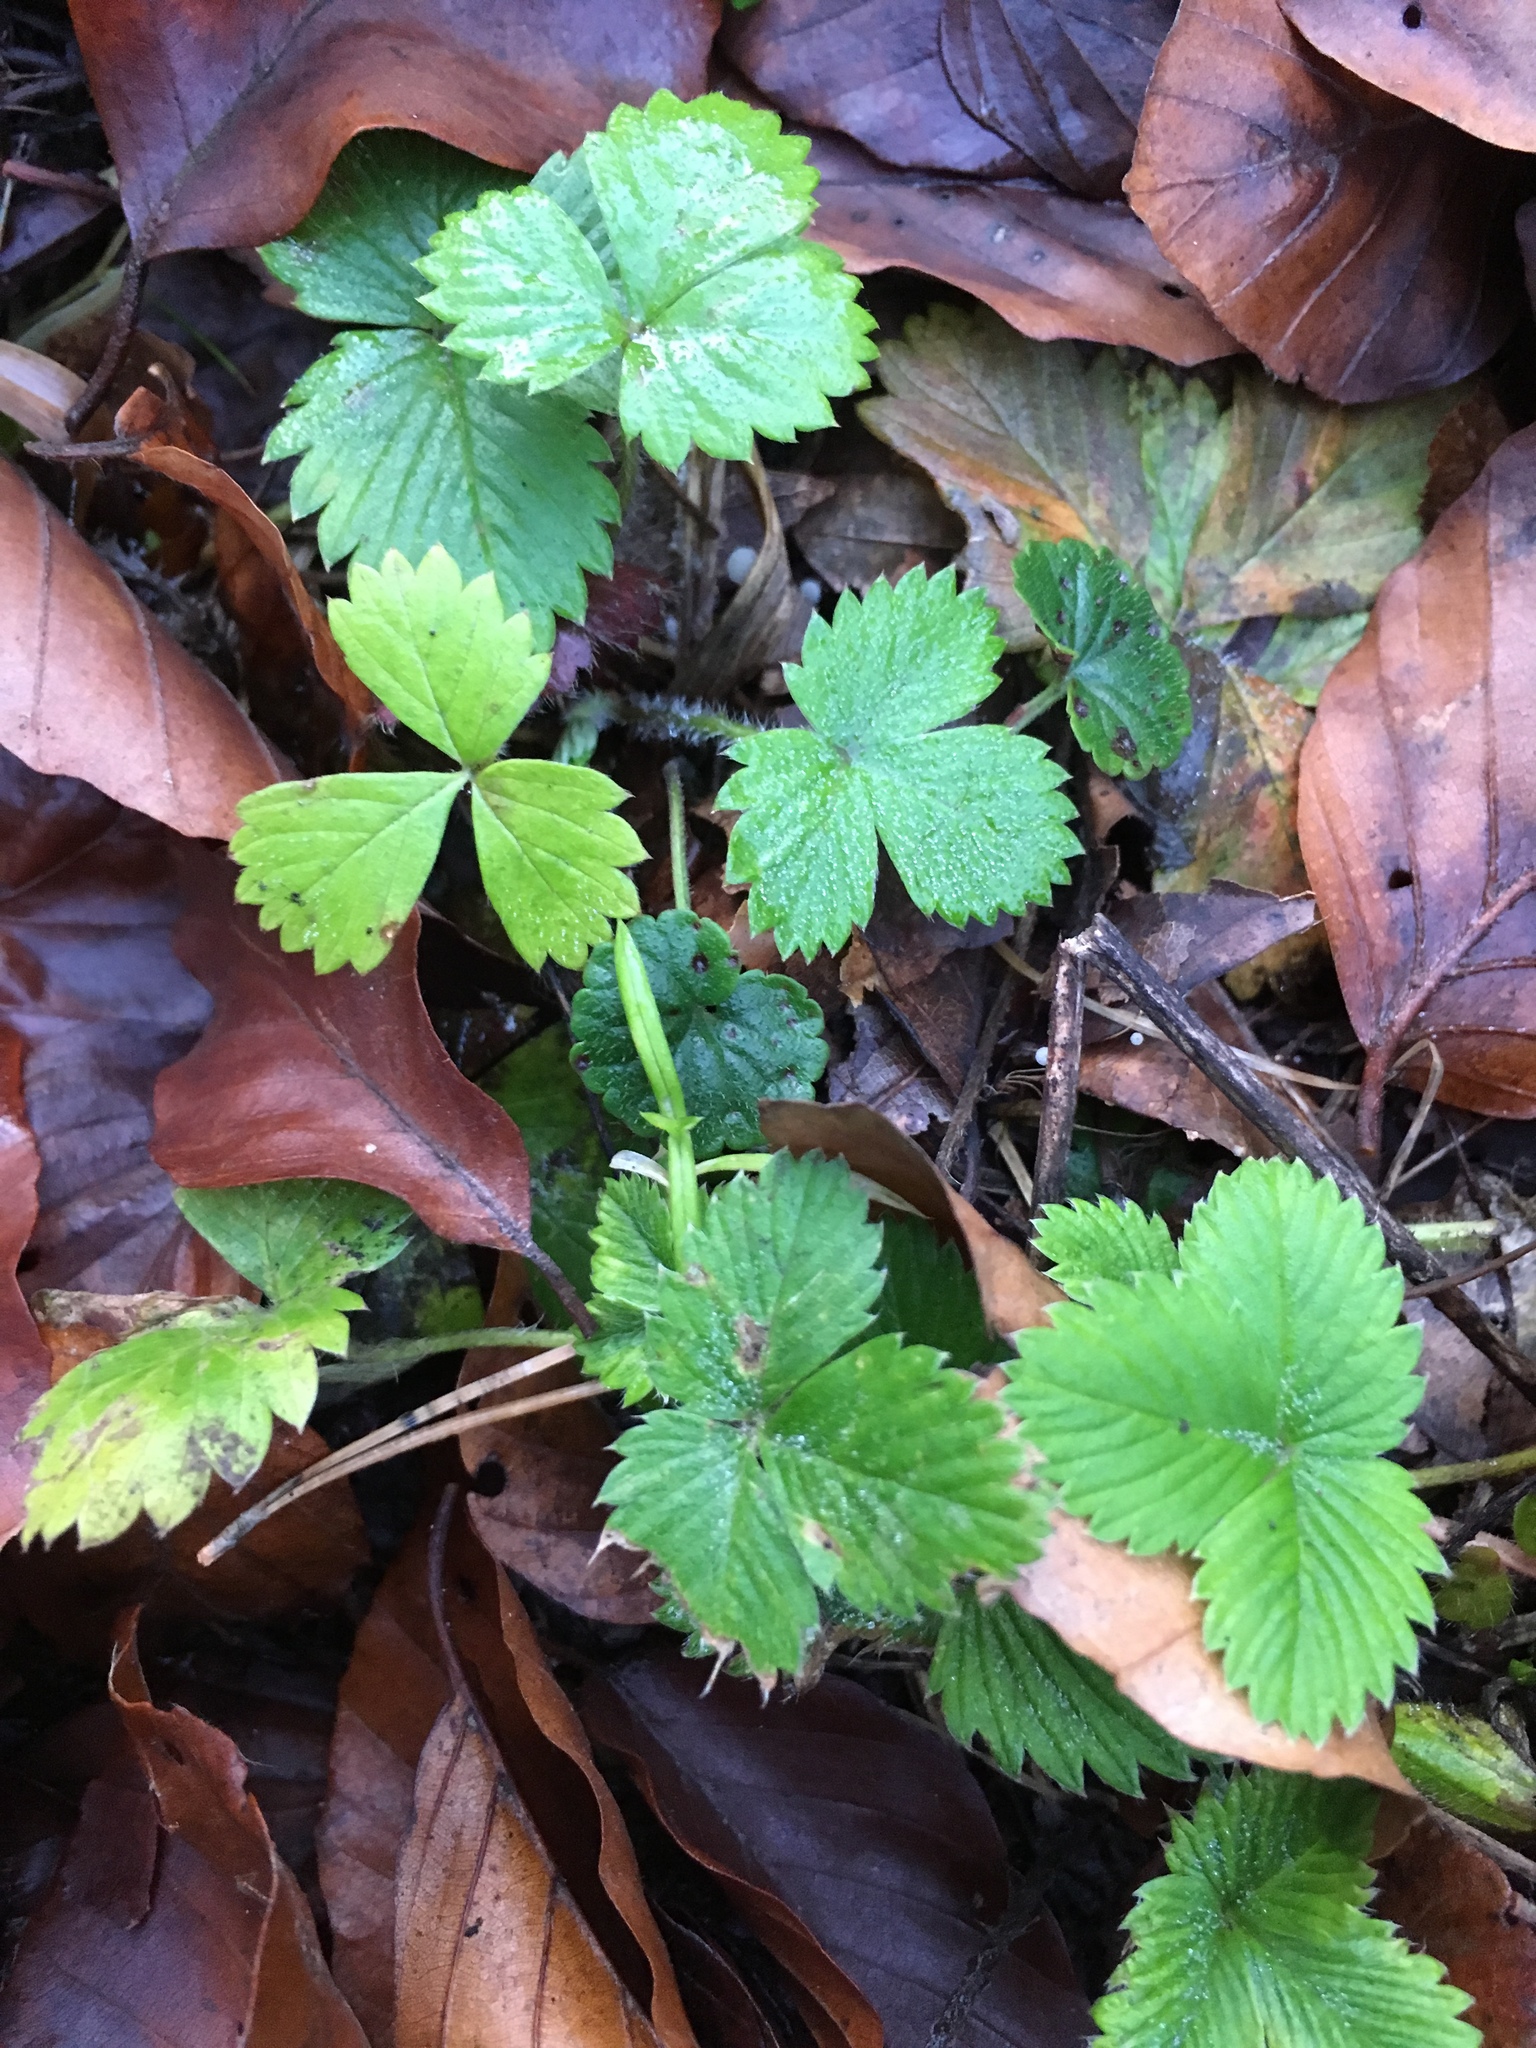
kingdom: Plantae
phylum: Tracheophyta
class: Magnoliopsida
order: Rosales
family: Rosaceae
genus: Fragaria
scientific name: Fragaria vesca
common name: Wild strawberry
